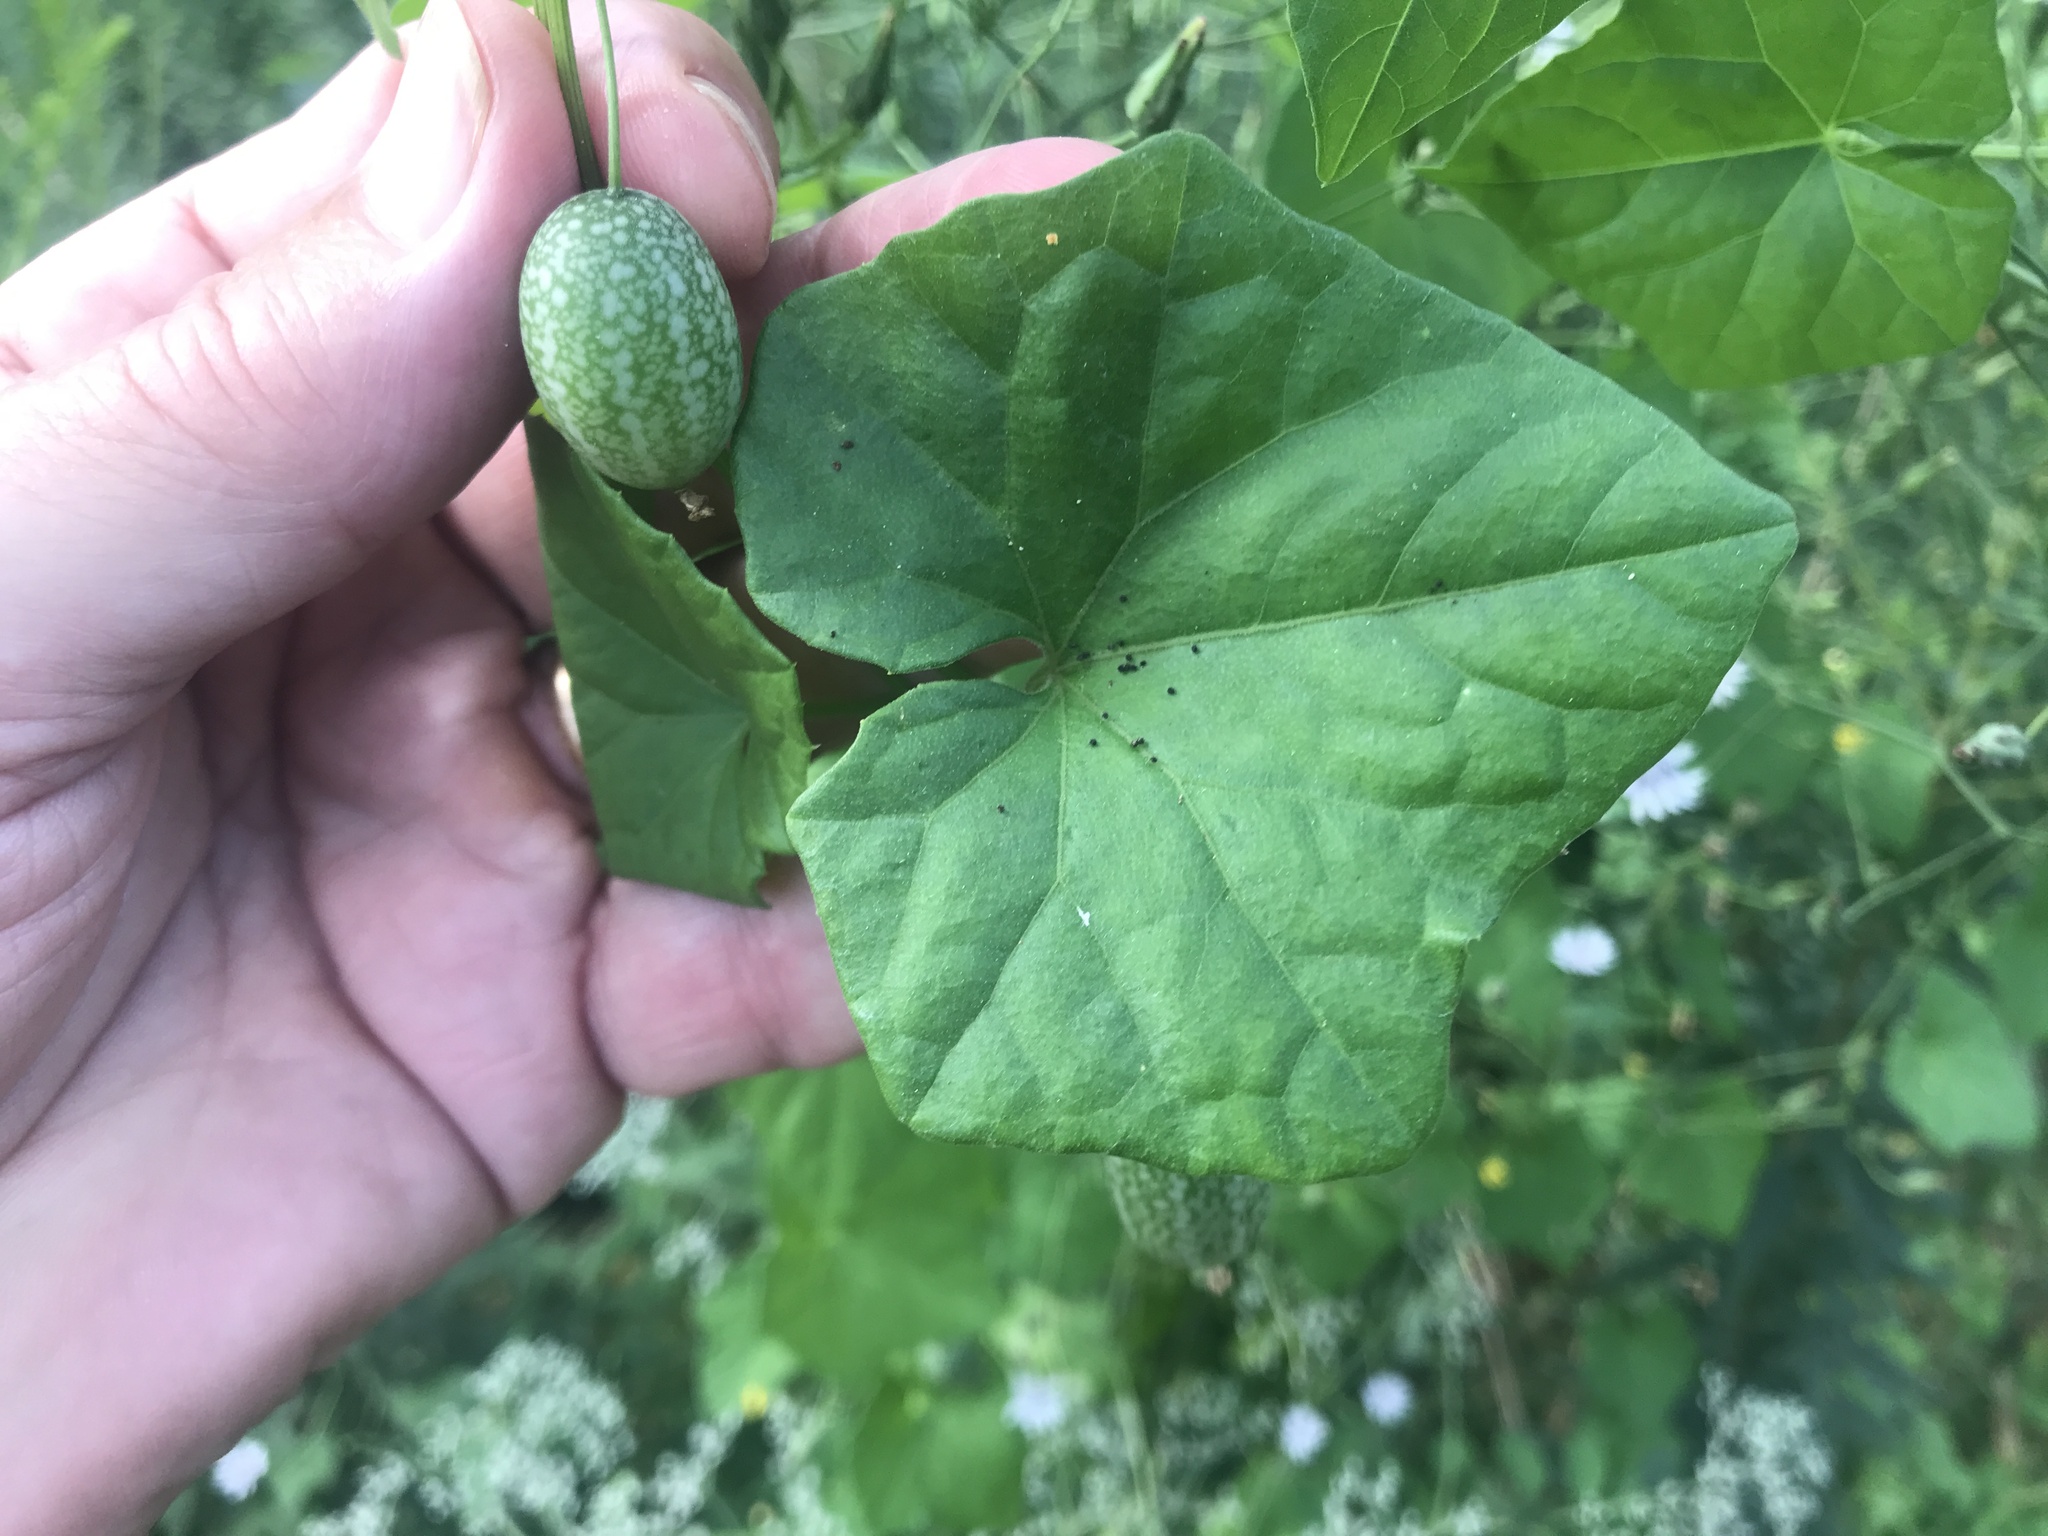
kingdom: Plantae
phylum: Tracheophyta
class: Magnoliopsida
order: Cucurbitales
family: Cucurbitaceae
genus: Melothria
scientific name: Melothria pendula
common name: Creeping-cucumber
